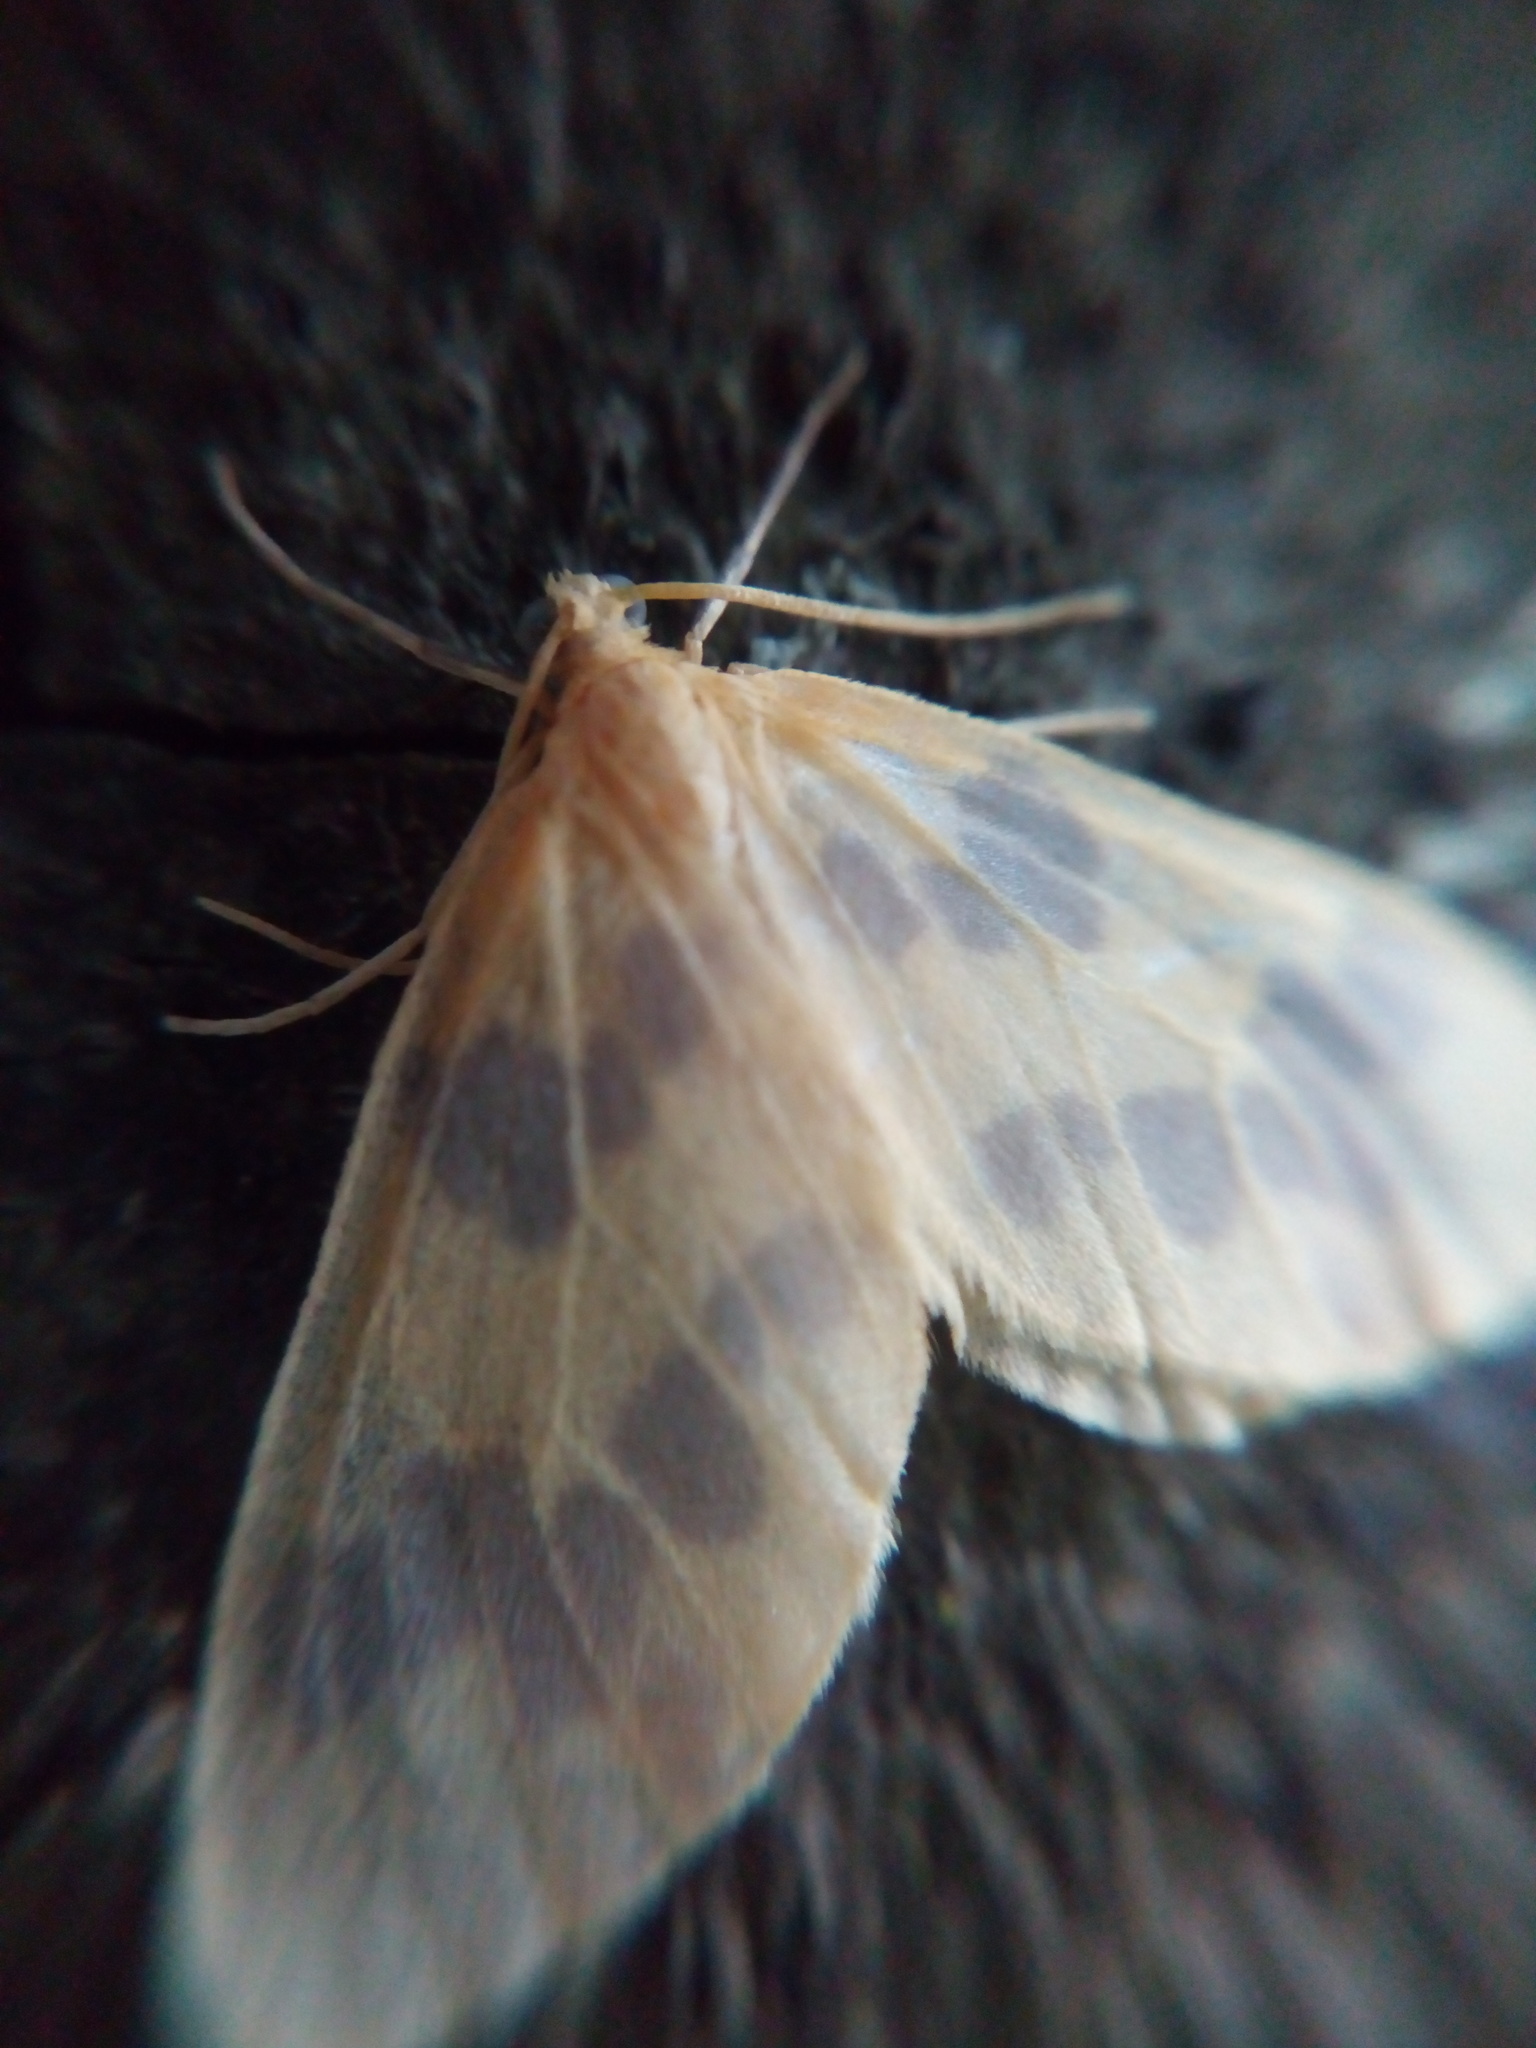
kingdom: Animalia
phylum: Arthropoda
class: Insecta
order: Lepidoptera
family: Geometridae
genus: Eubaphe
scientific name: Eubaphe mendica
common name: Beggar
